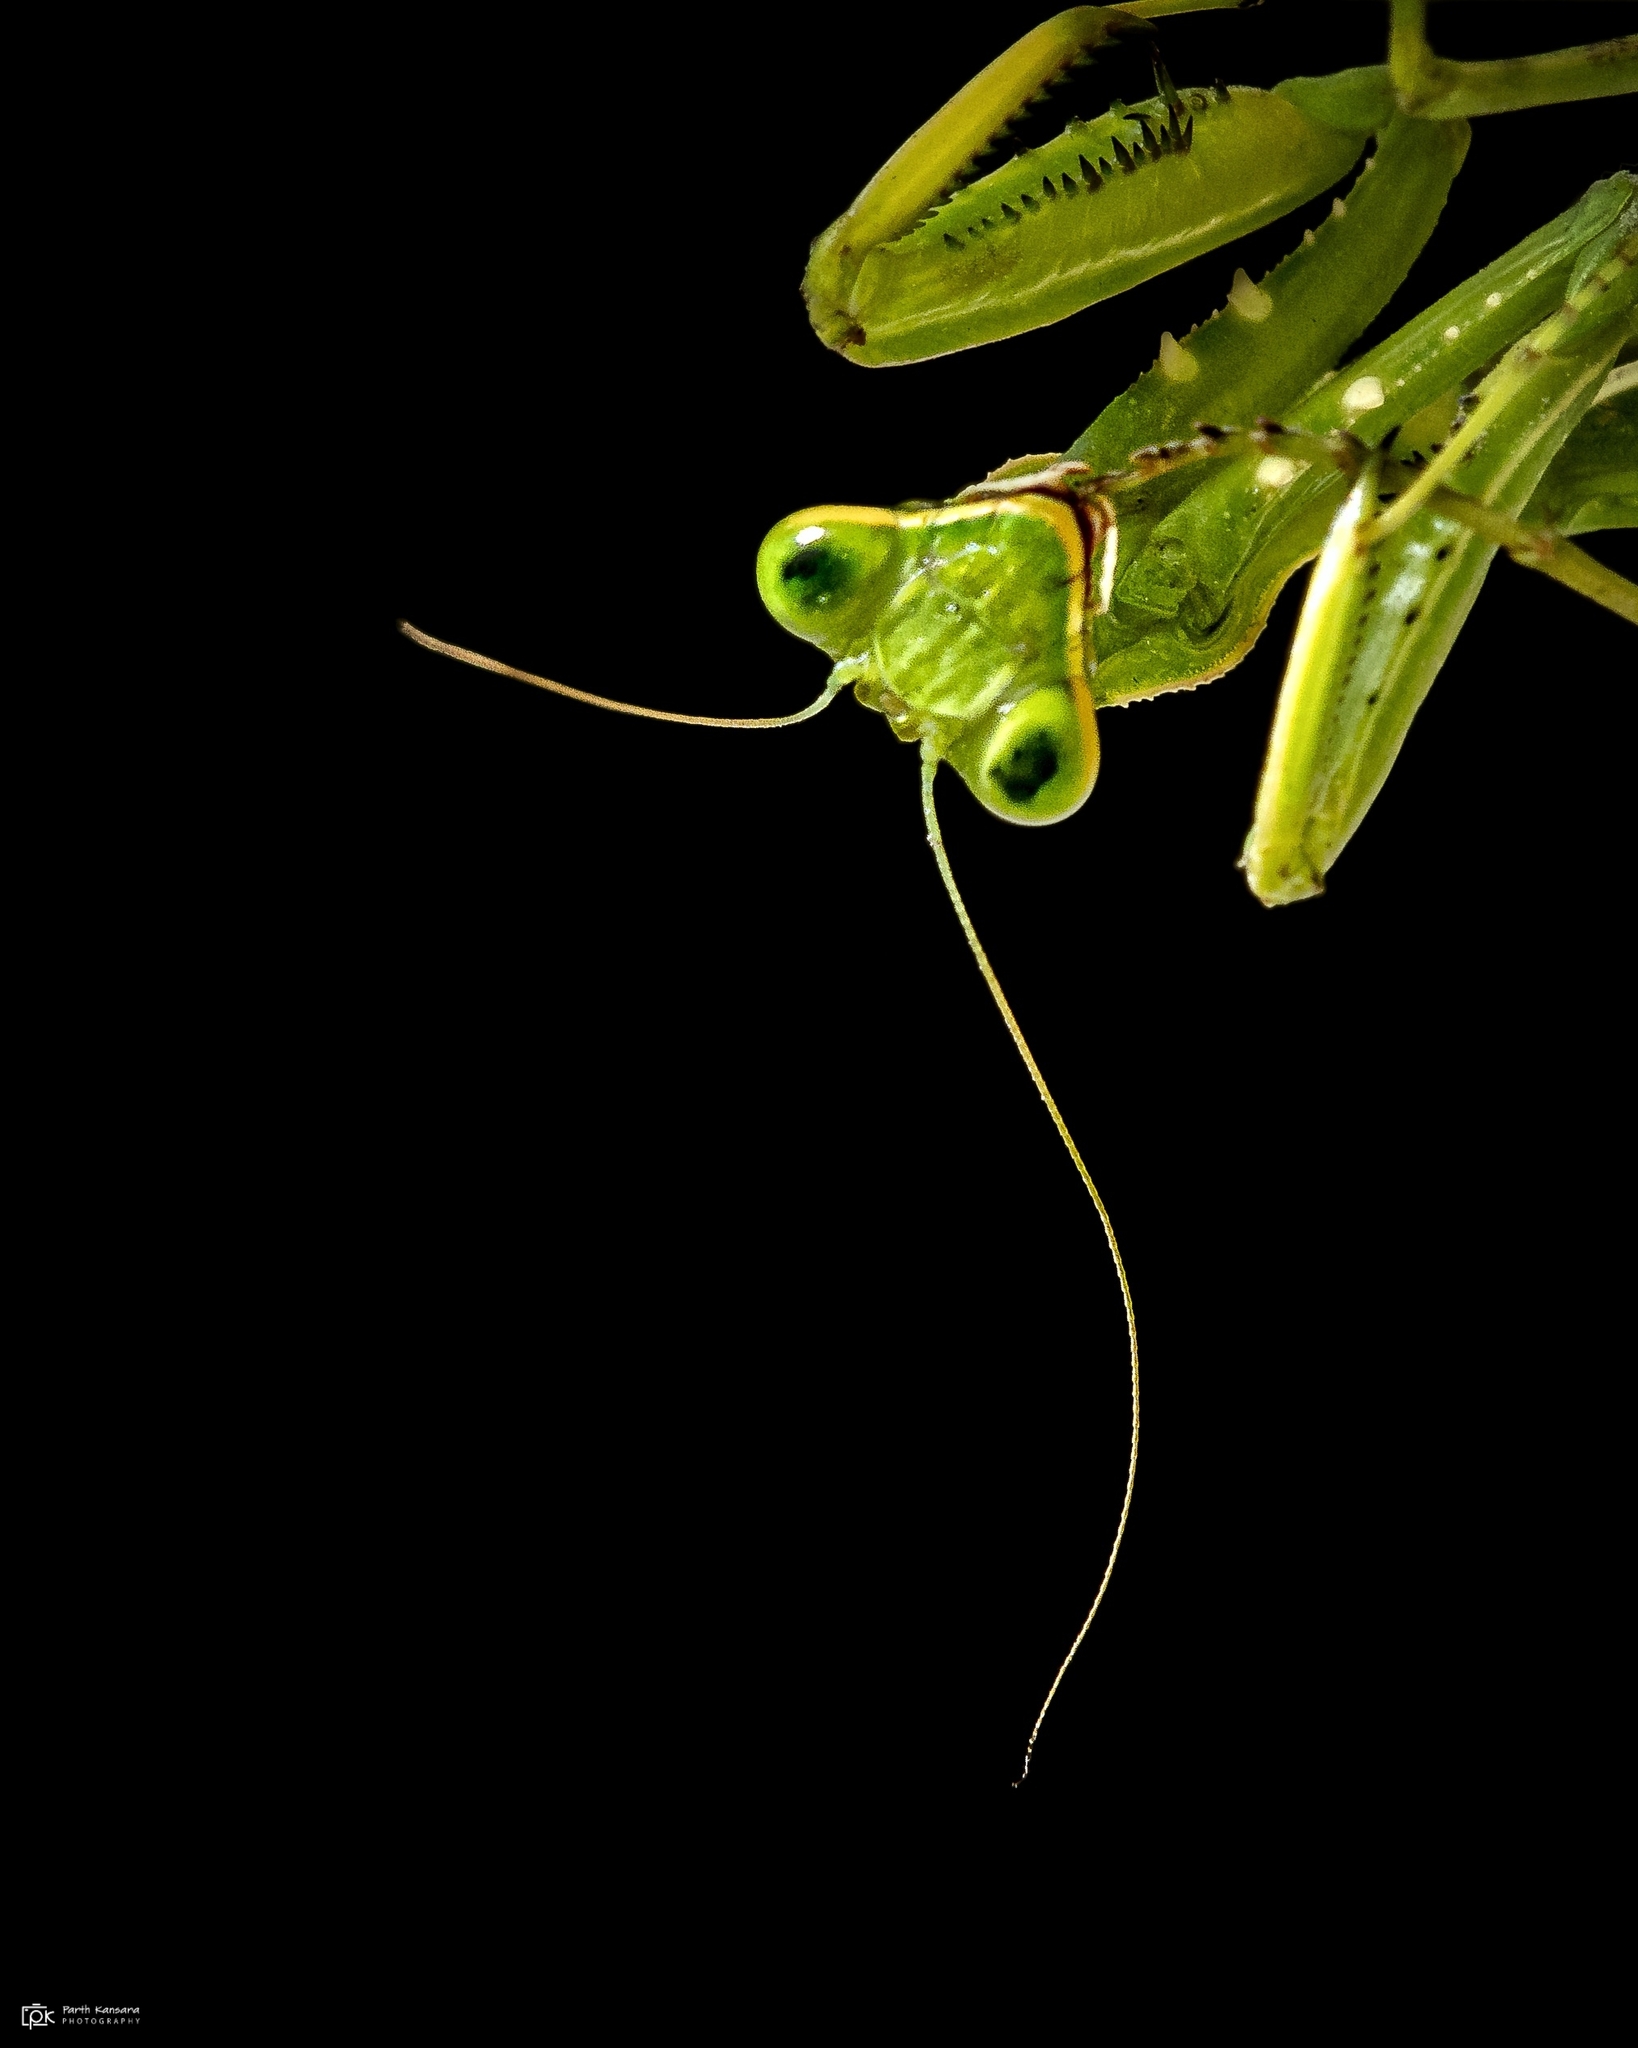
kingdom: Animalia
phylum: Arthropoda
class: Insecta
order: Mantodea
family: Mantidae
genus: Hierodula
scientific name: Hierodula coarctata
